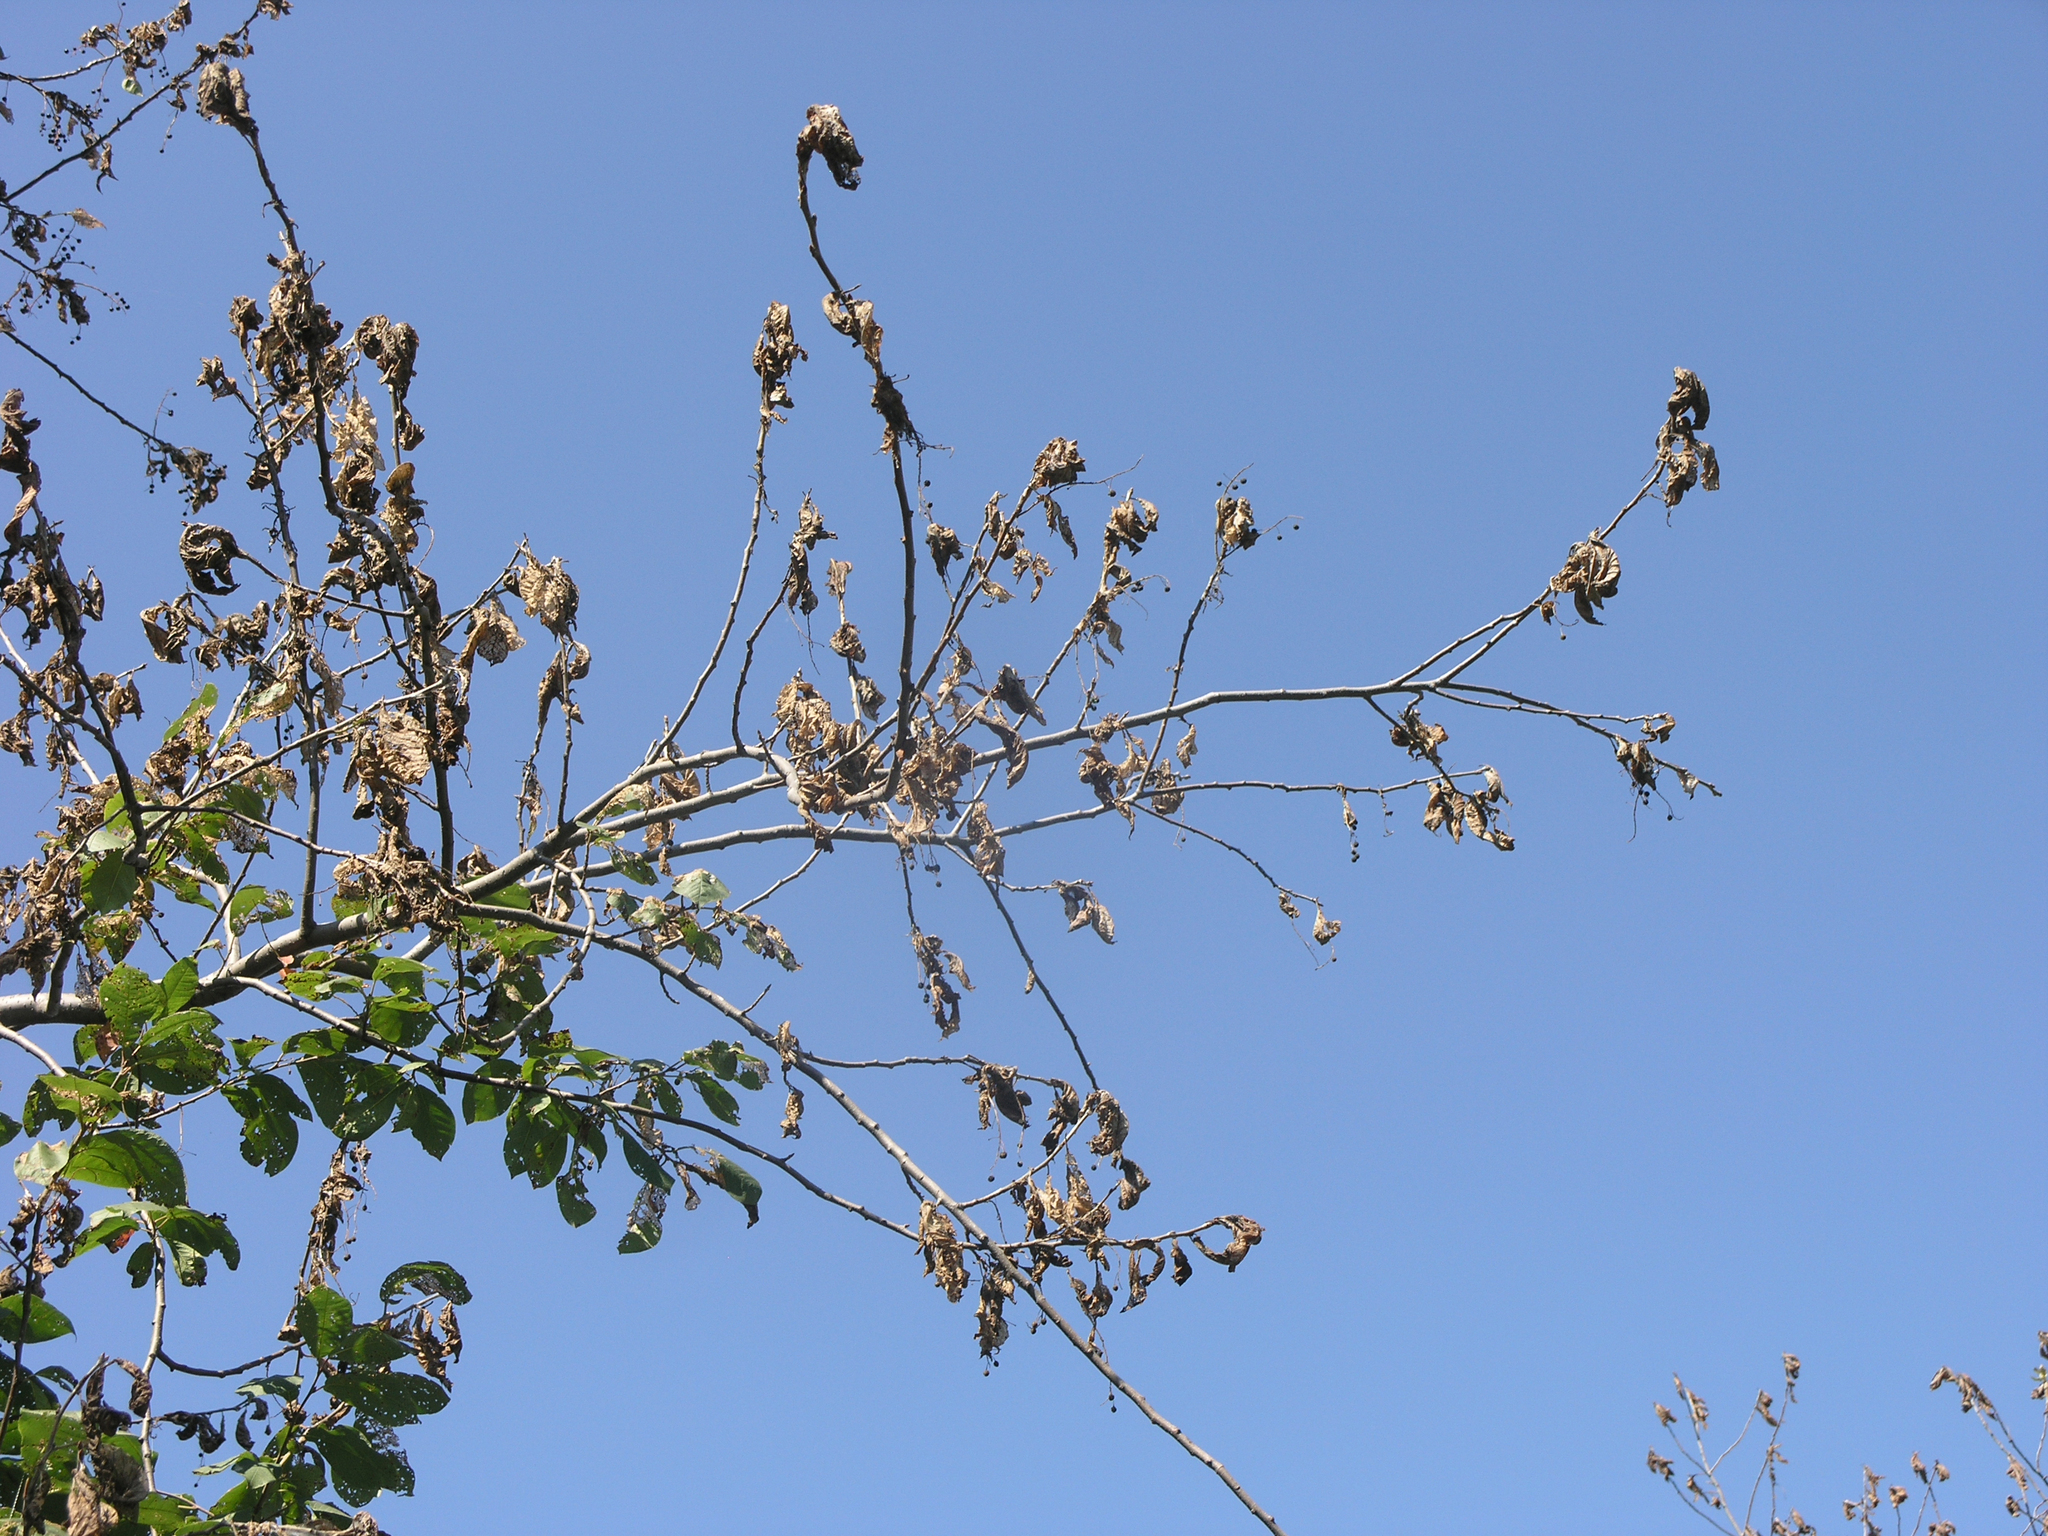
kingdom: Plantae
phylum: Tracheophyta
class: Magnoliopsida
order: Rosales
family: Rosaceae
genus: Prunus
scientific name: Prunus padus
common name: Bird cherry
